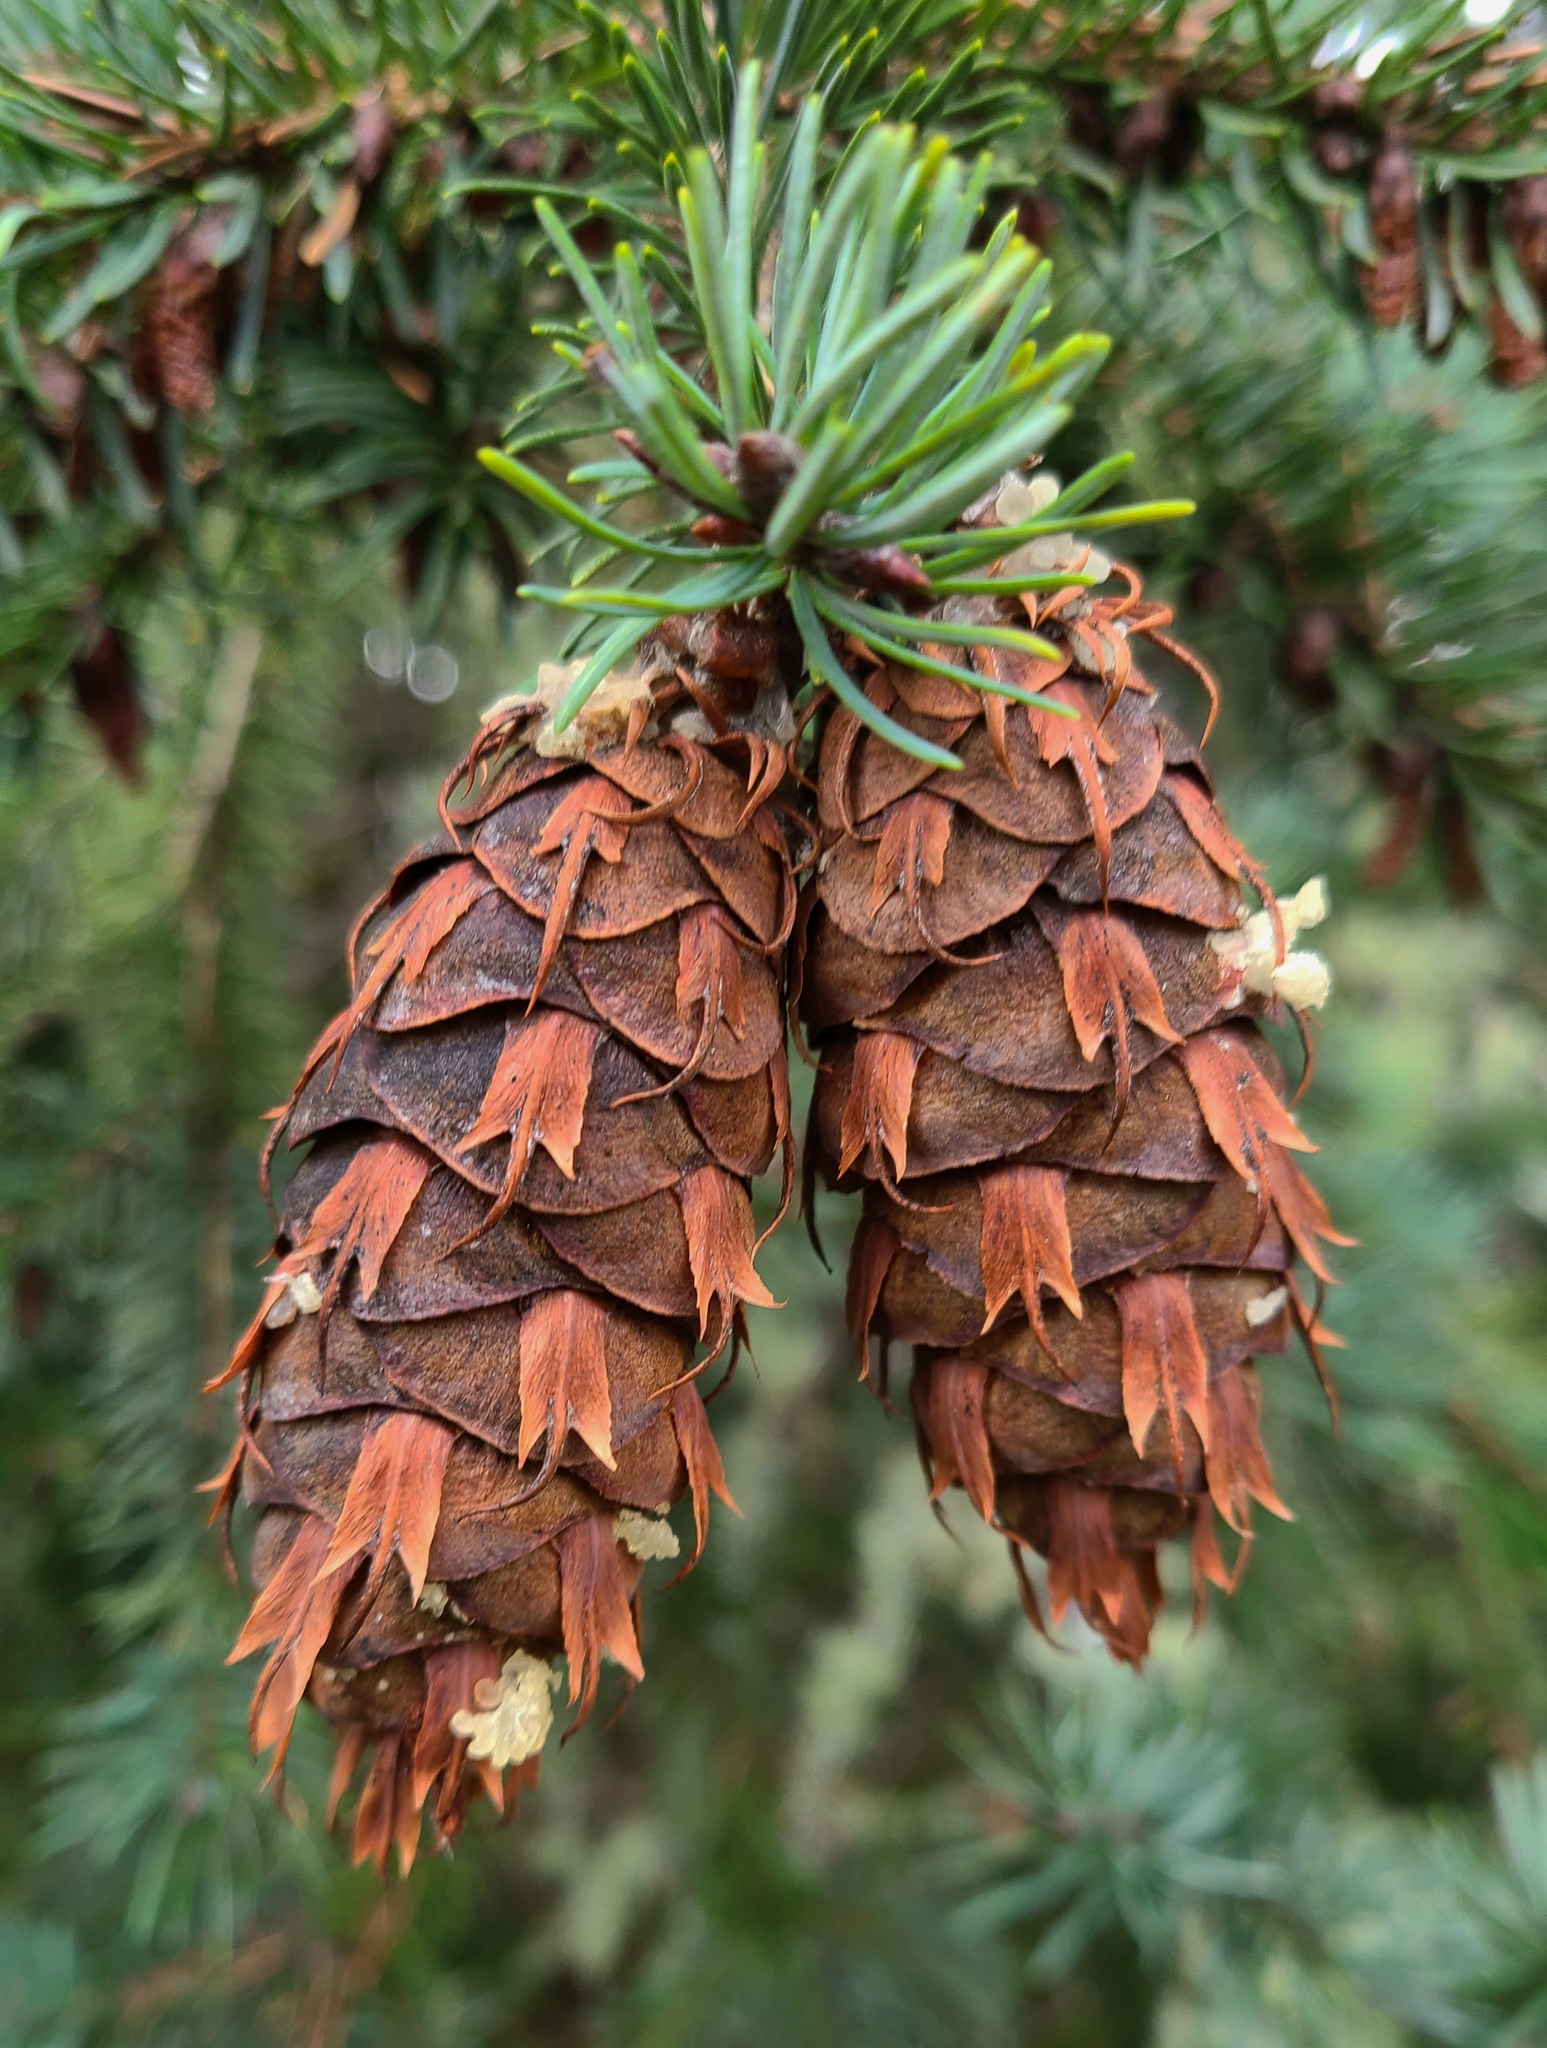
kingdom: Plantae
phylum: Tracheophyta
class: Pinopsida
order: Pinales
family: Pinaceae
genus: Pseudotsuga
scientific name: Pseudotsuga menziesii
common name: Douglas fir
